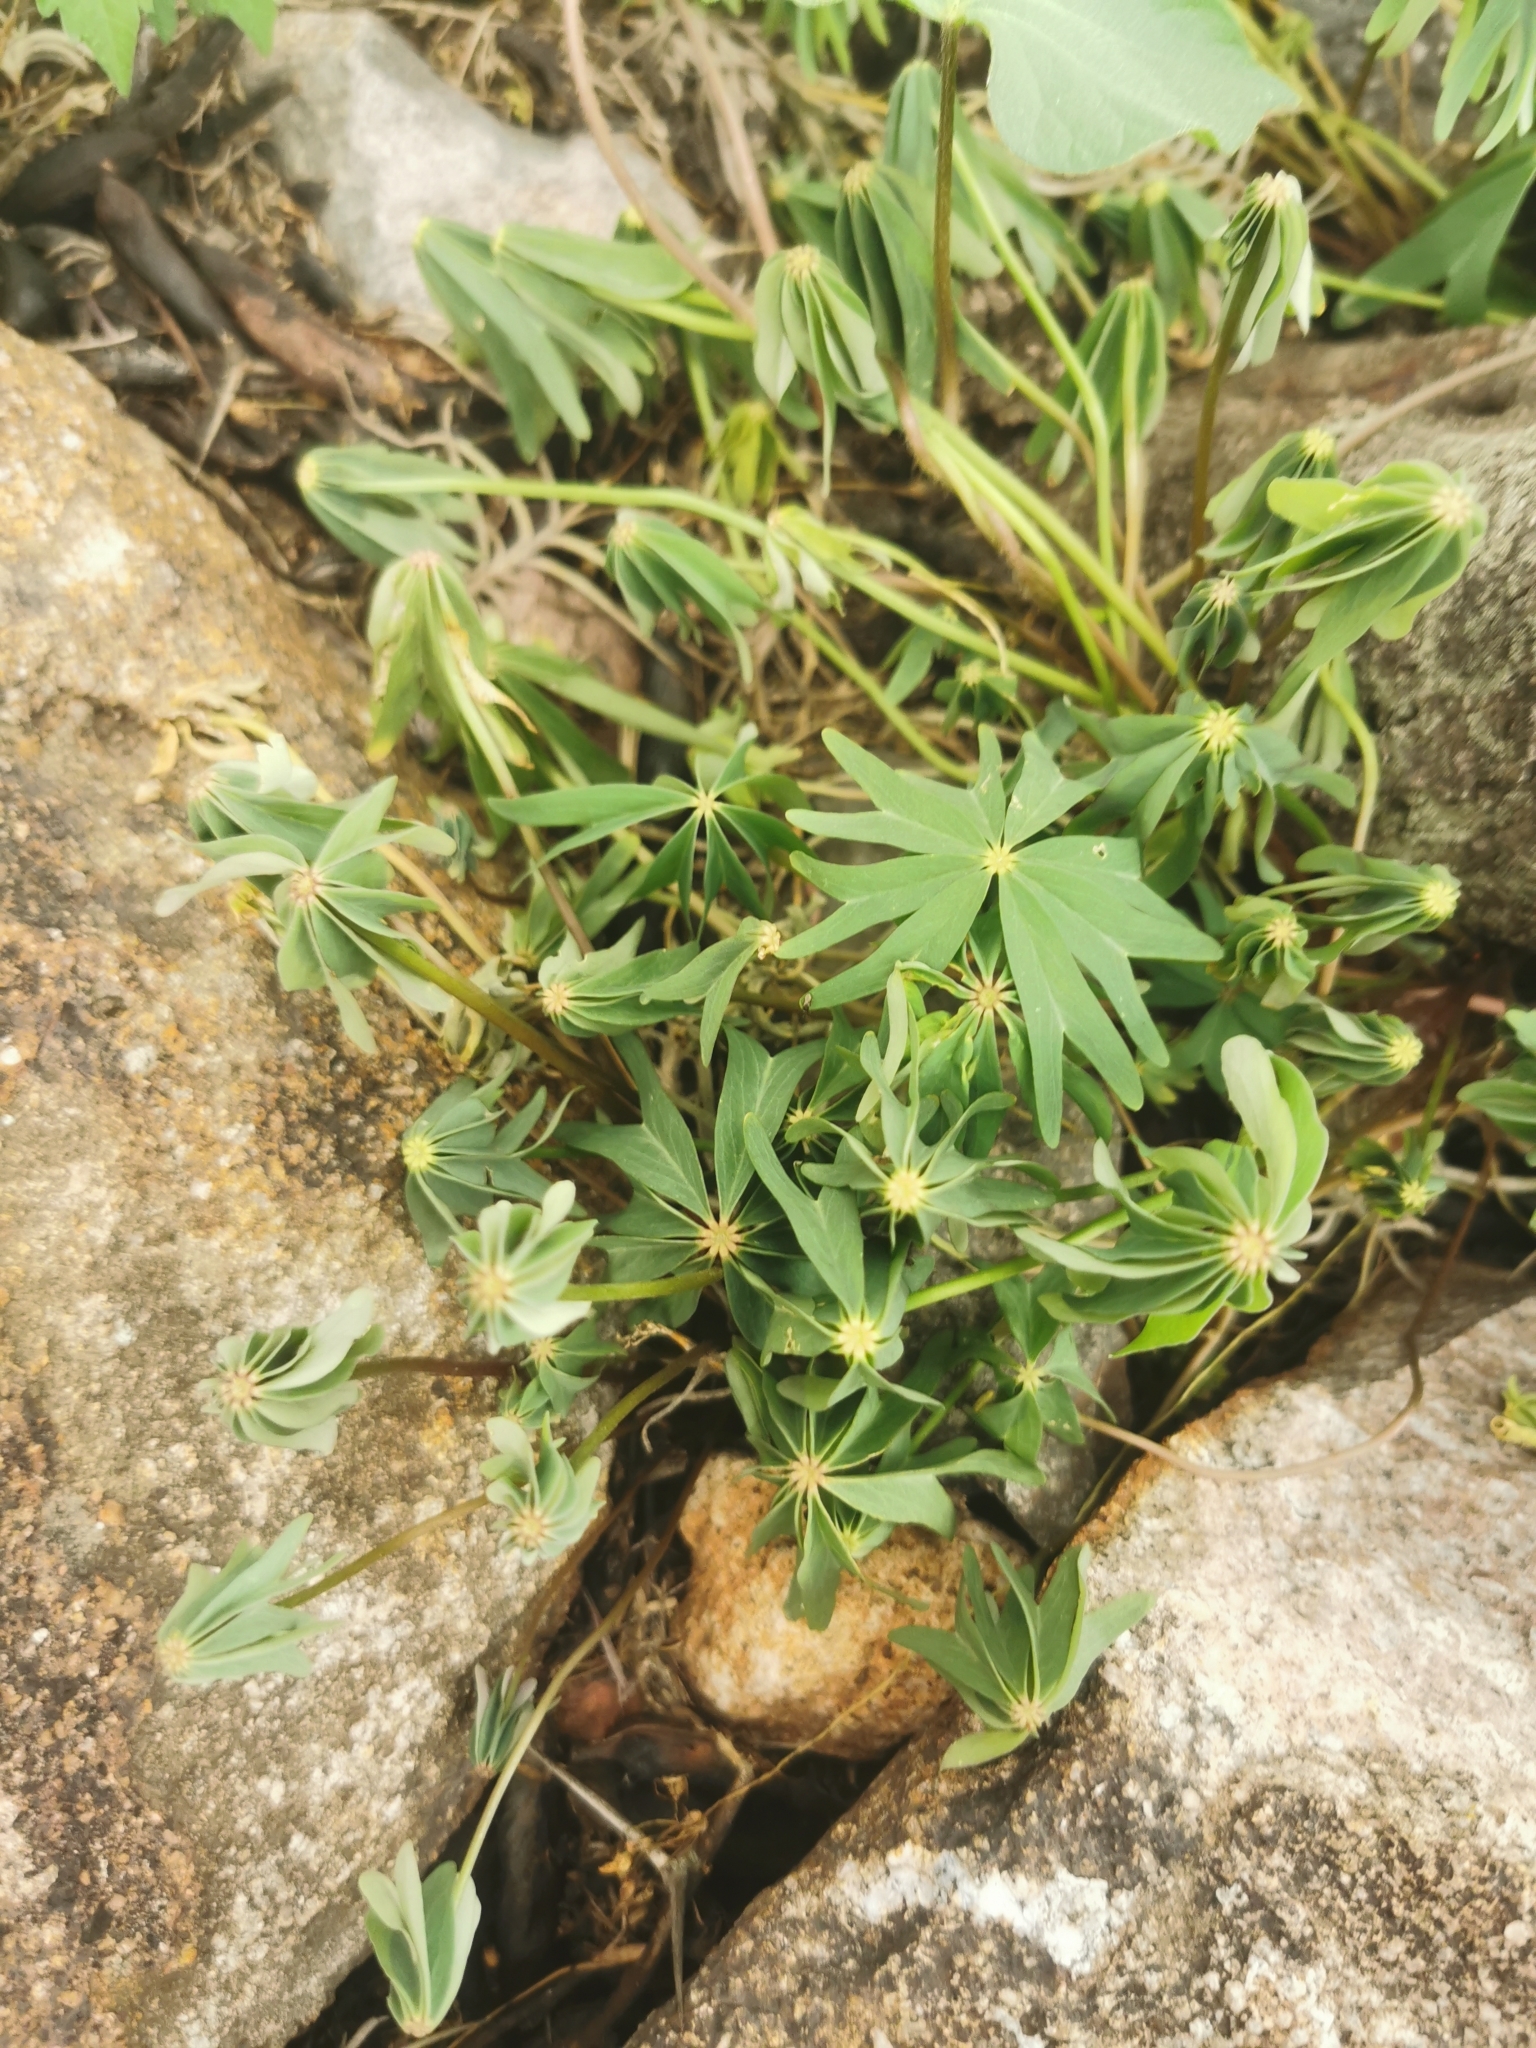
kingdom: Plantae
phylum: Tracheophyta
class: Magnoliopsida
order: Oxalidales
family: Oxalidaceae
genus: Oxalis
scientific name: Oxalis decaphylla
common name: Ten-leaved pink-sorrel
